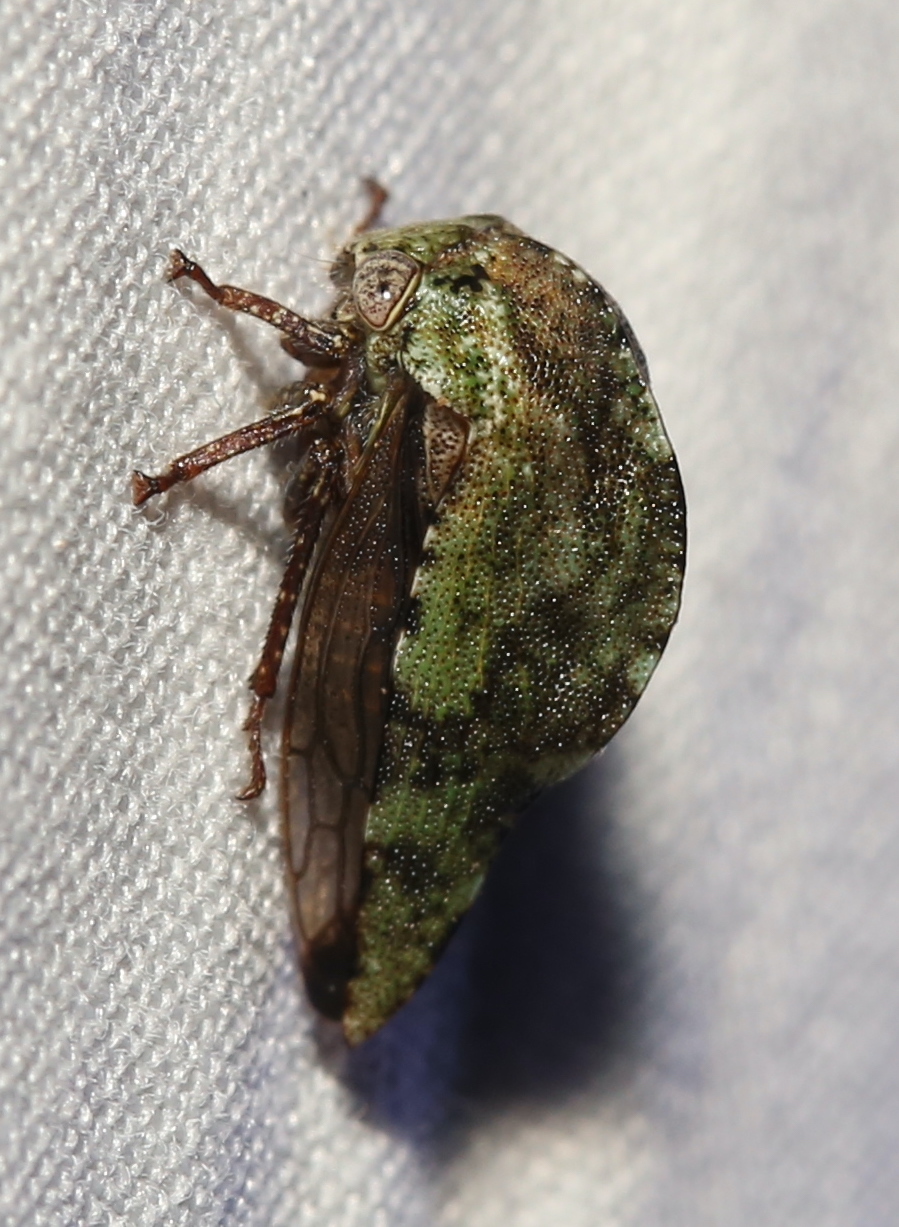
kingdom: Animalia
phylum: Arthropoda
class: Insecta
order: Hemiptera
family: Membracidae
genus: Telamona
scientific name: Telamona westcotti
